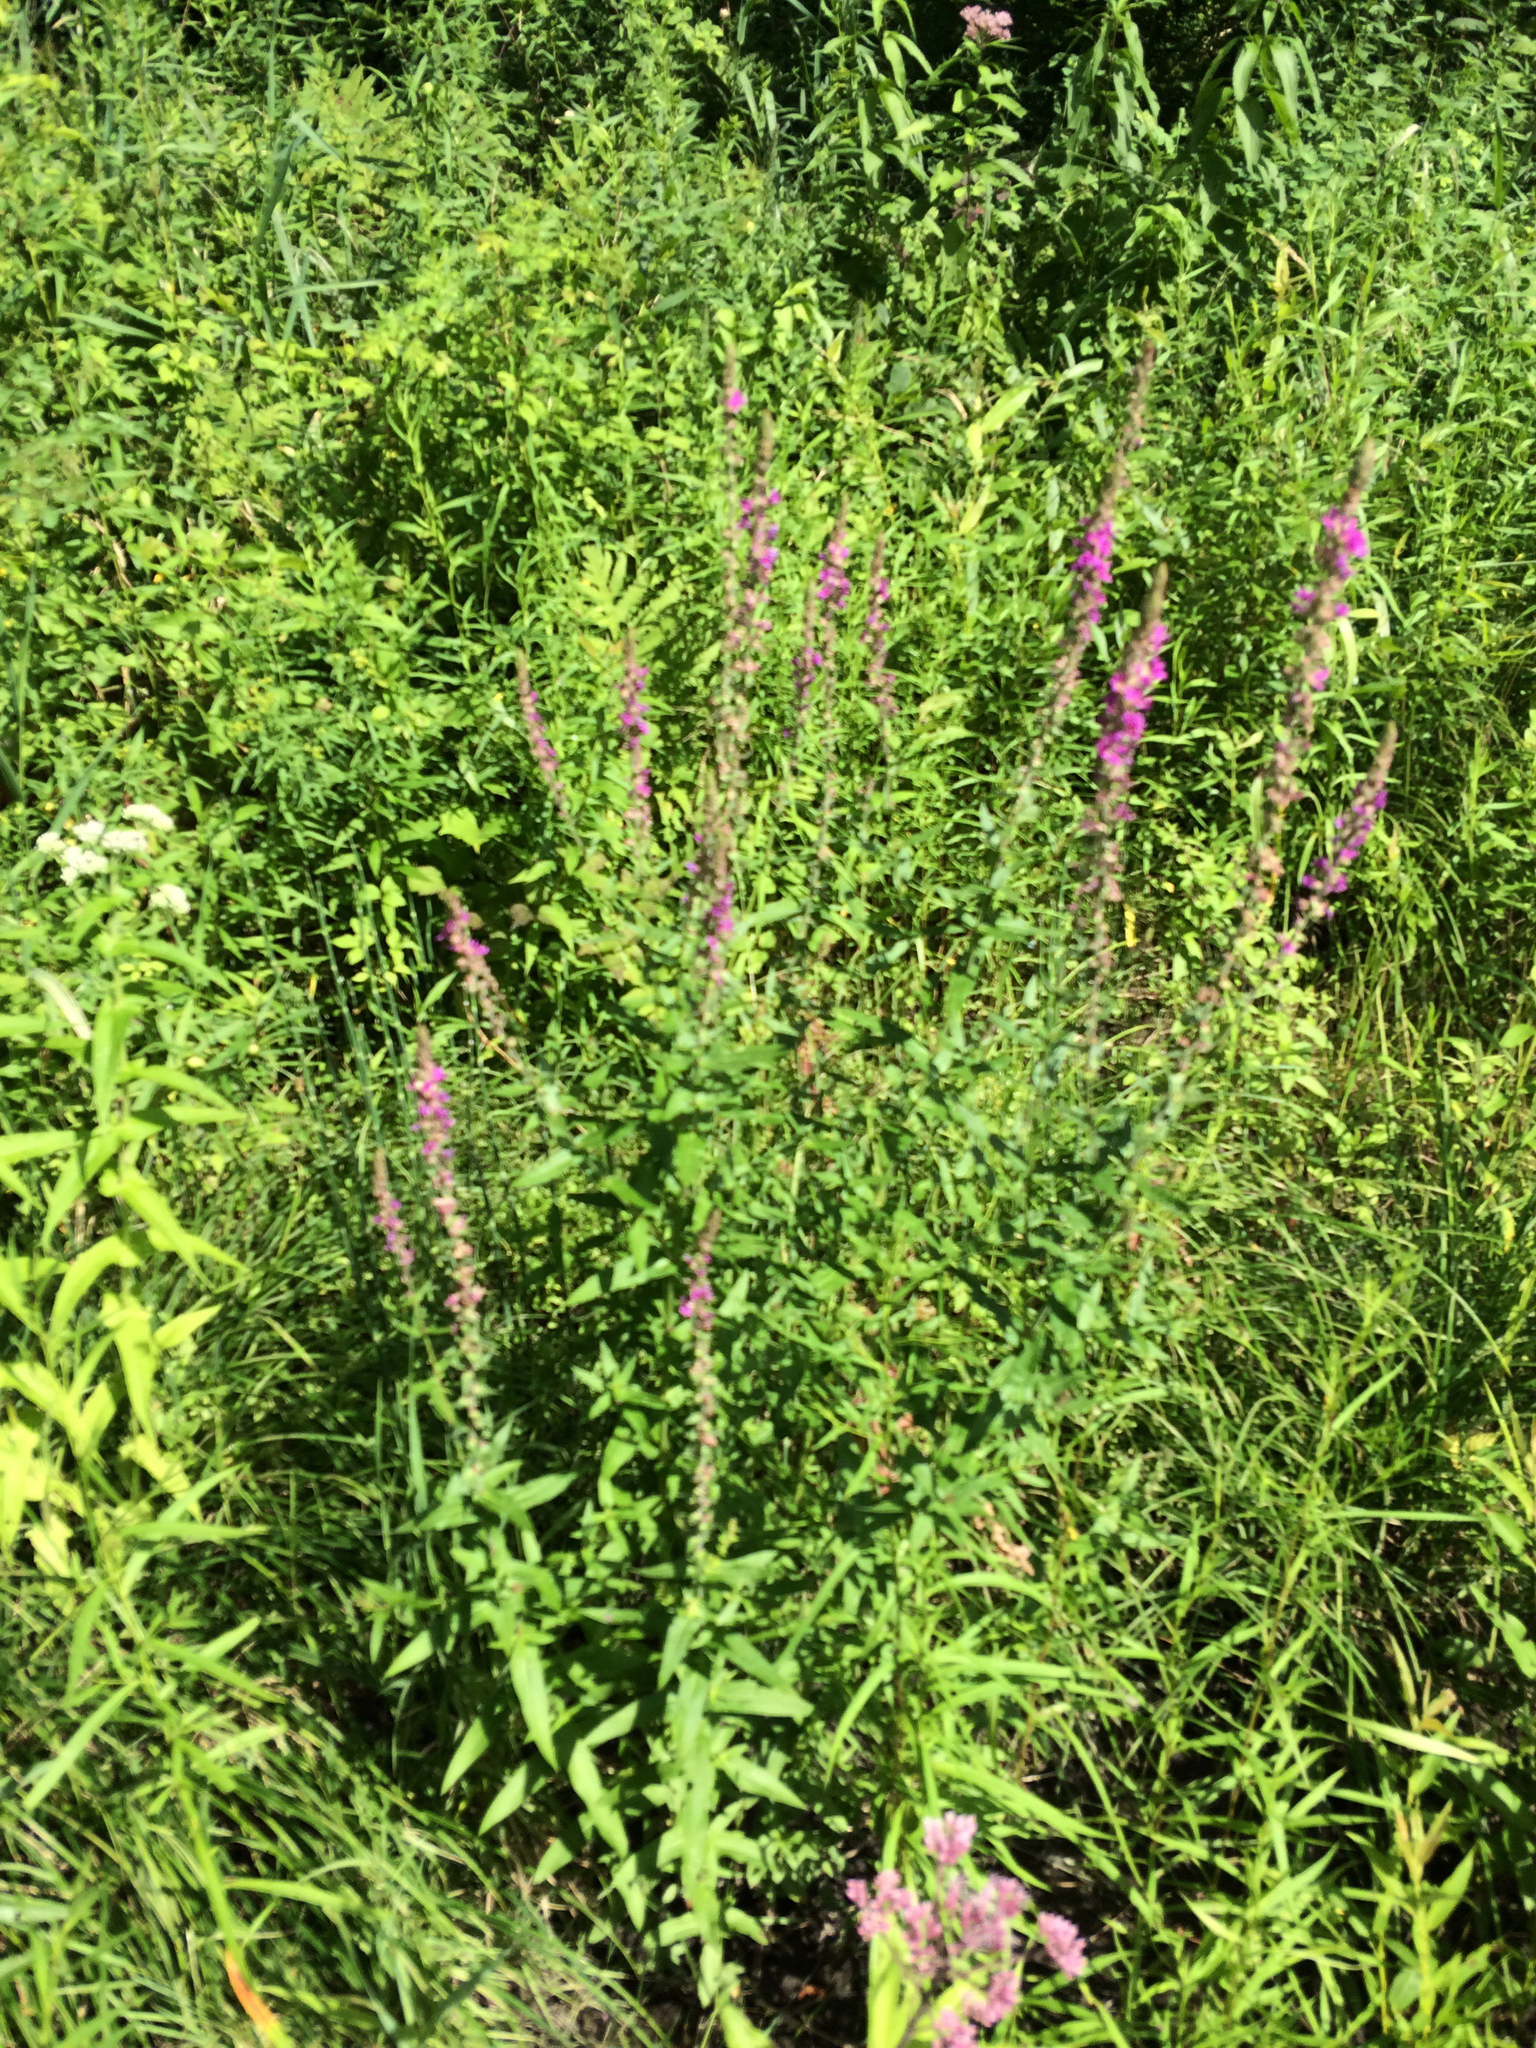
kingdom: Plantae
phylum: Tracheophyta
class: Magnoliopsida
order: Myrtales
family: Lythraceae
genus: Lythrum
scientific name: Lythrum salicaria
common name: Purple loosestrife
